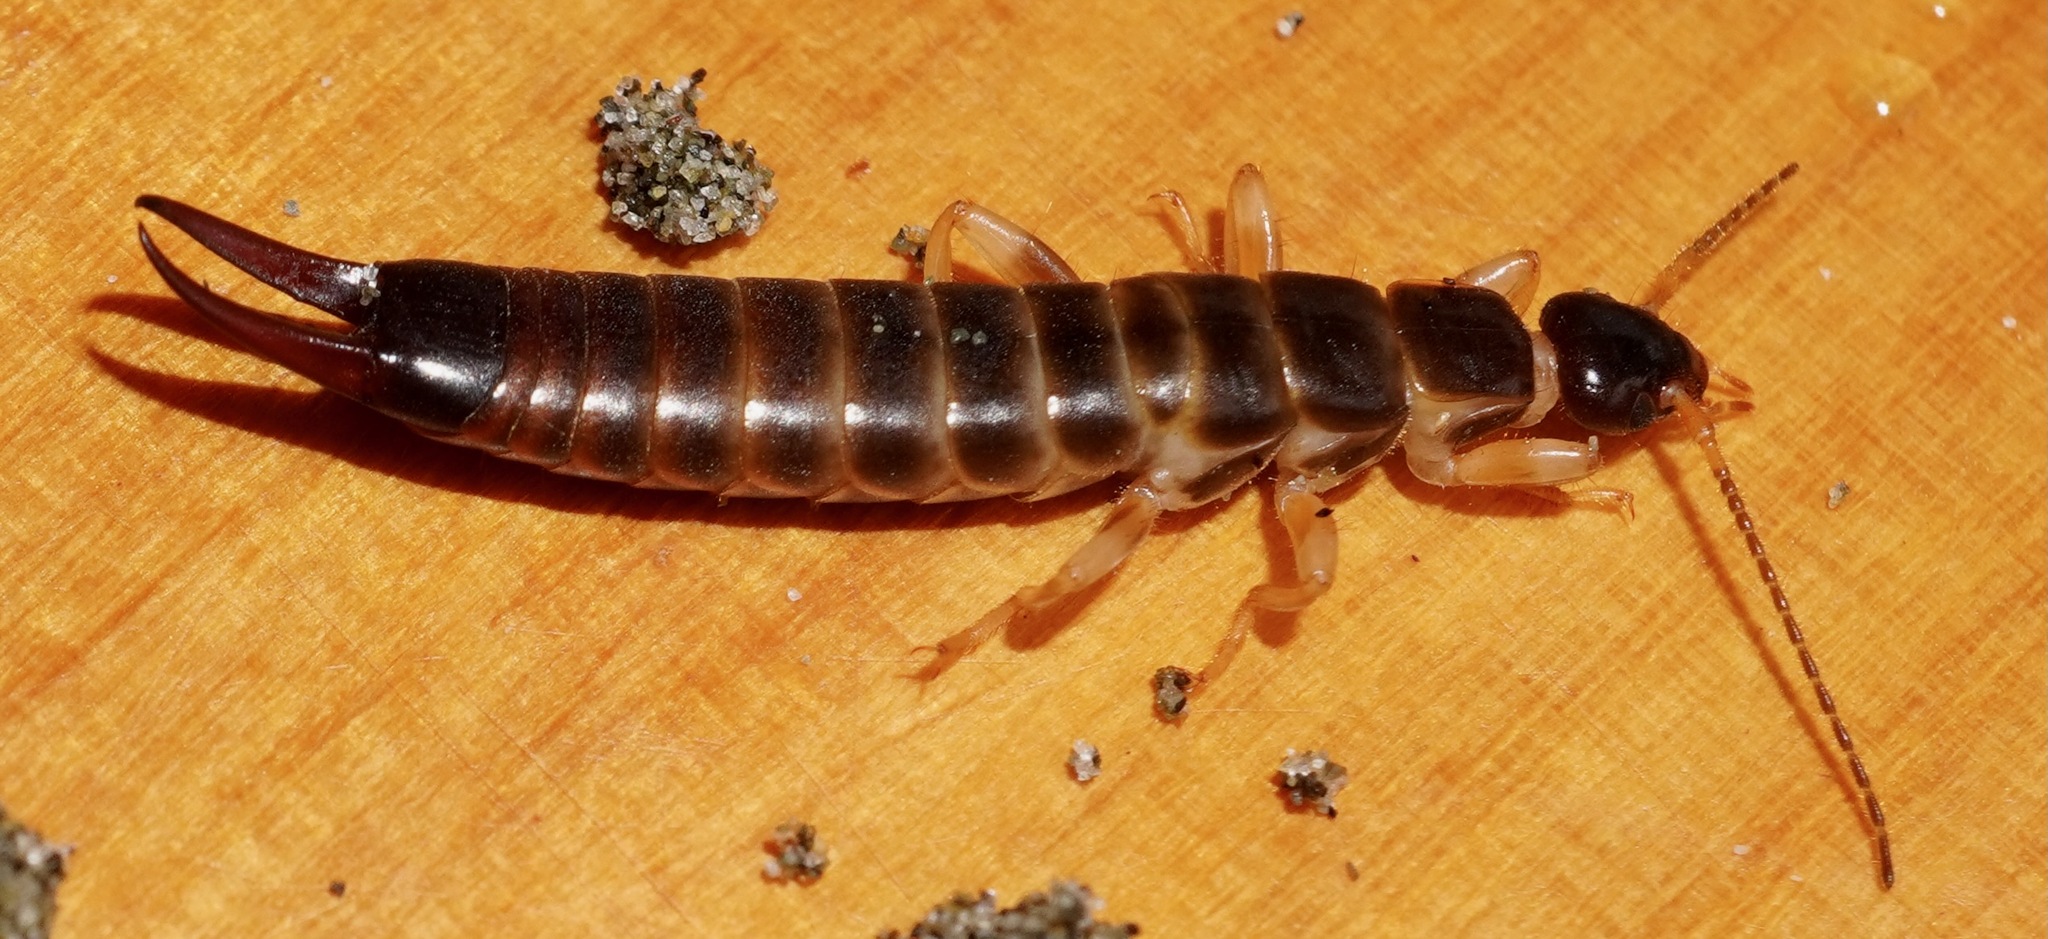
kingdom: Animalia
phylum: Arthropoda
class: Insecta
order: Dermaptera
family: Anisolabididae
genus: Anisolabis
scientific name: Anisolabis littorea
